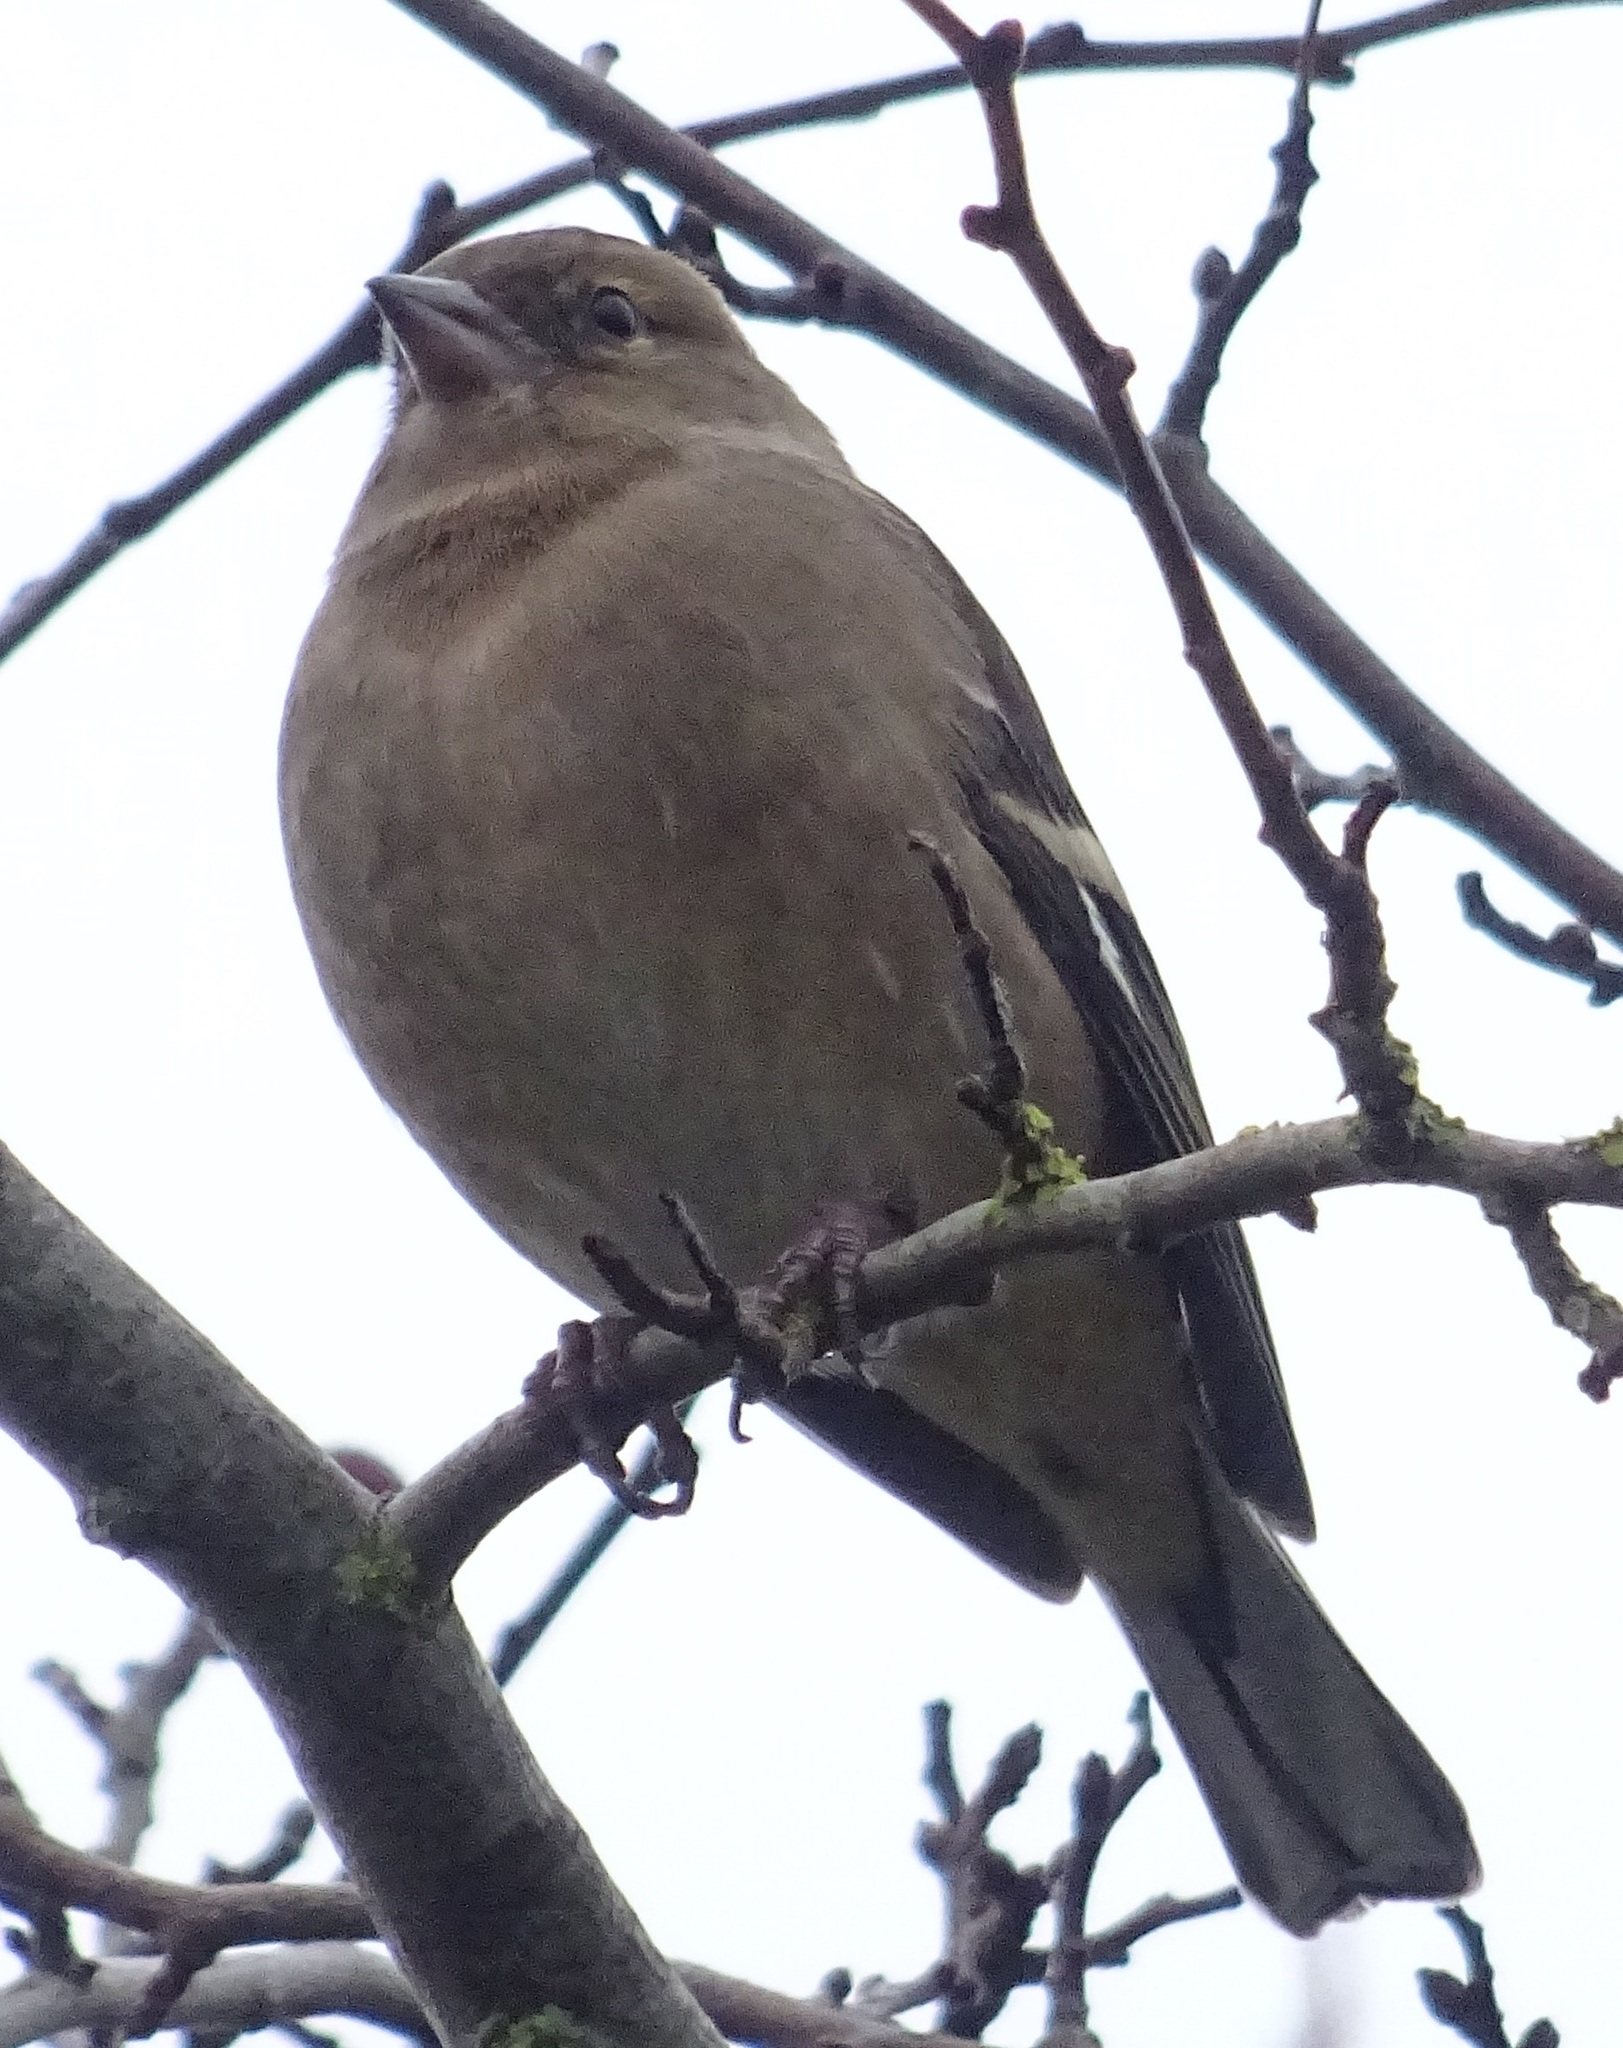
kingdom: Animalia
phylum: Chordata
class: Aves
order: Passeriformes
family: Fringillidae
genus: Fringilla
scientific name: Fringilla coelebs
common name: Common chaffinch
